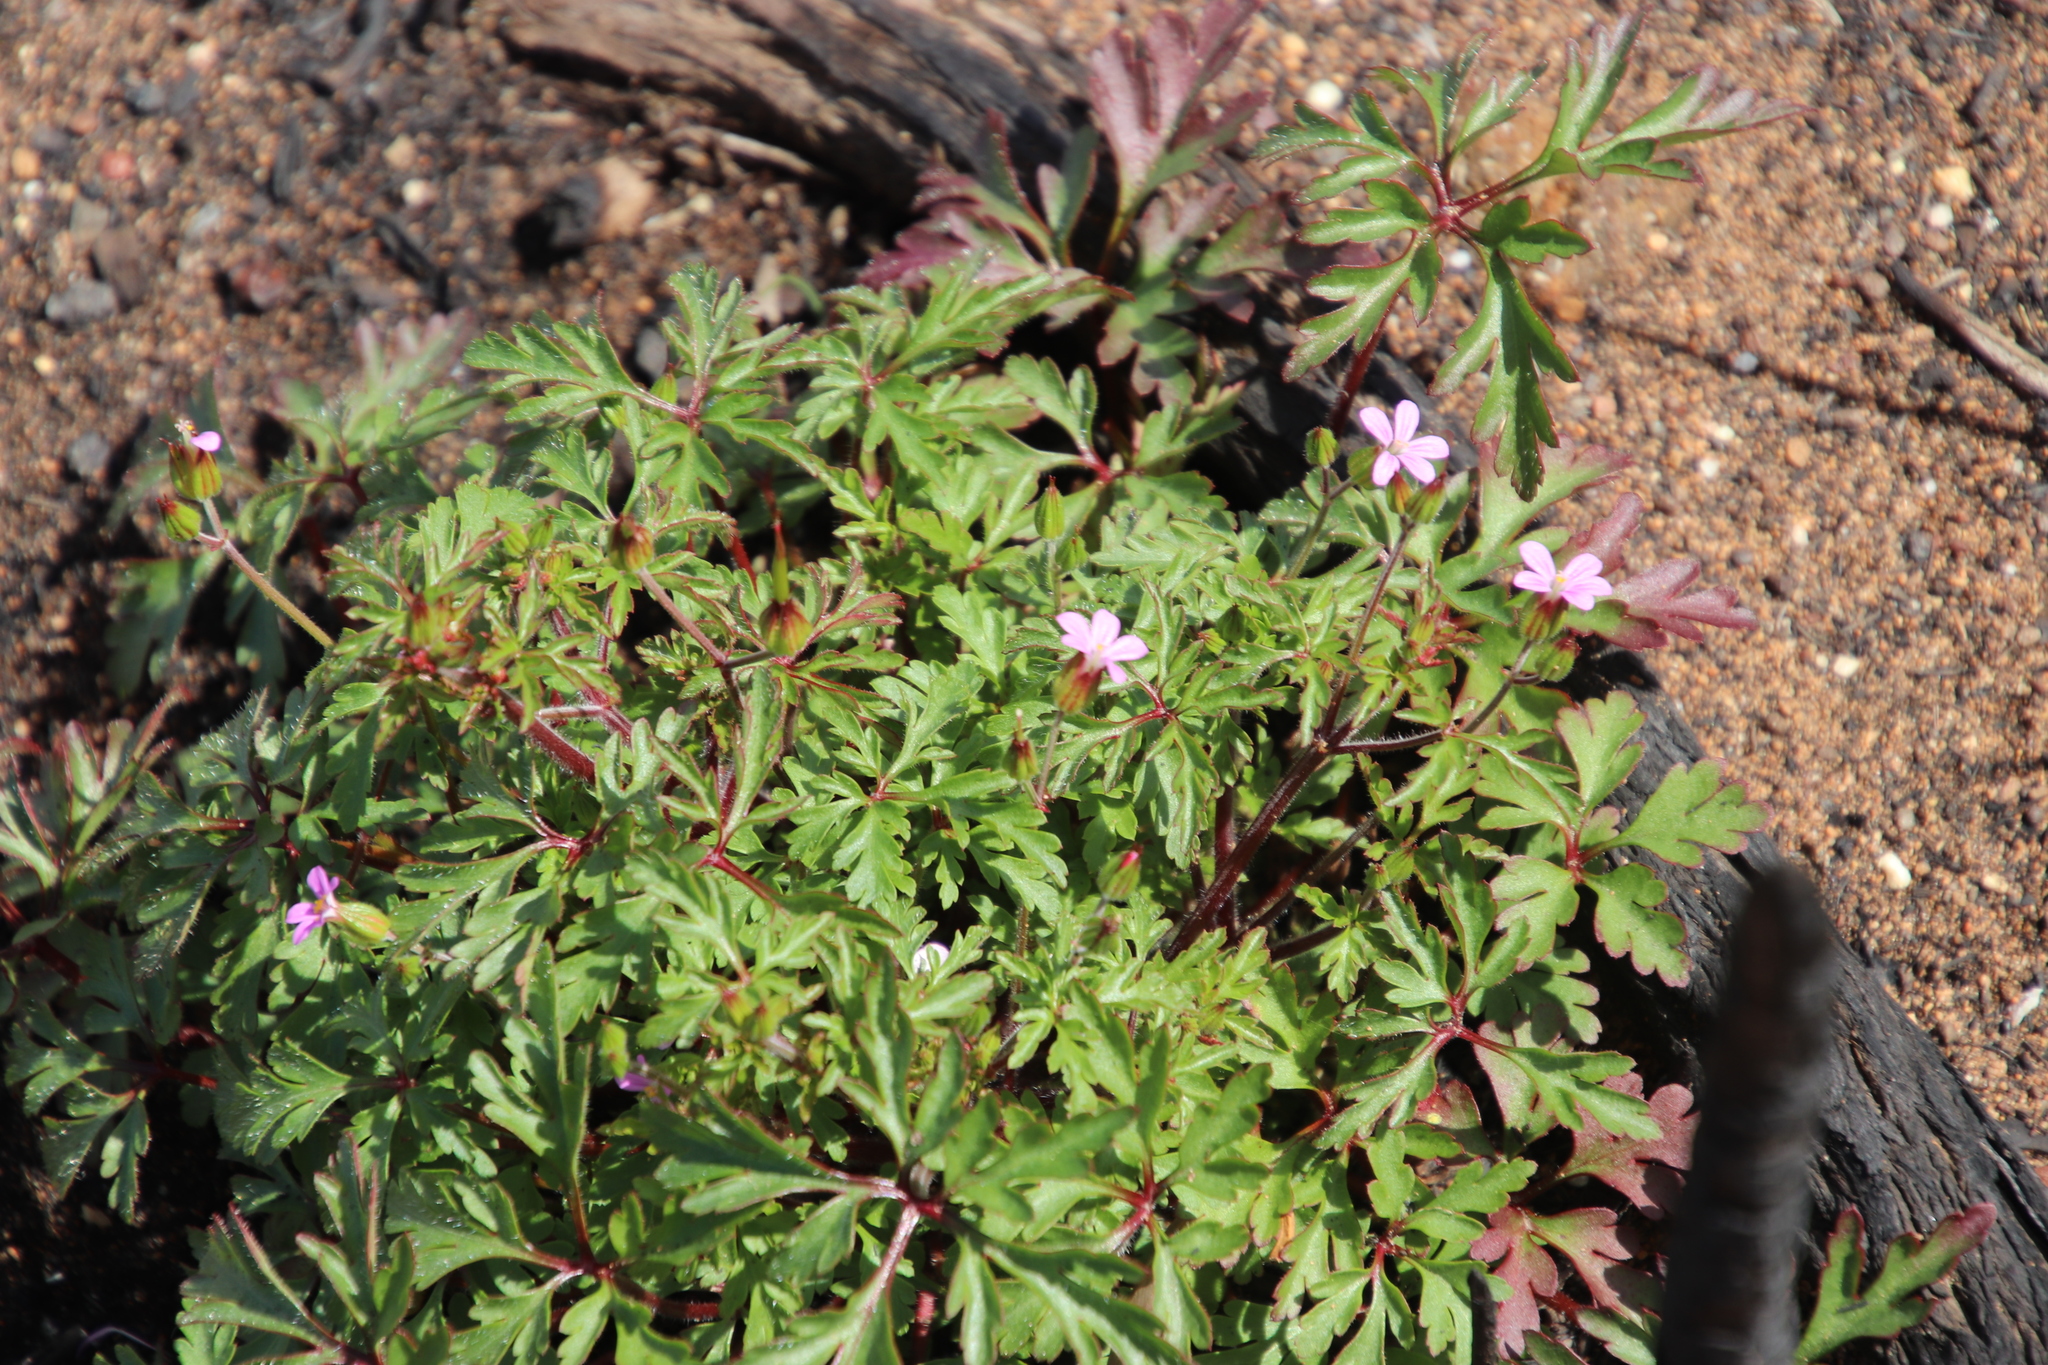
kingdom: Plantae
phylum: Tracheophyta
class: Magnoliopsida
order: Geraniales
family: Geraniaceae
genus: Geranium
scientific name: Geranium purpureum
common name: Little-robin
